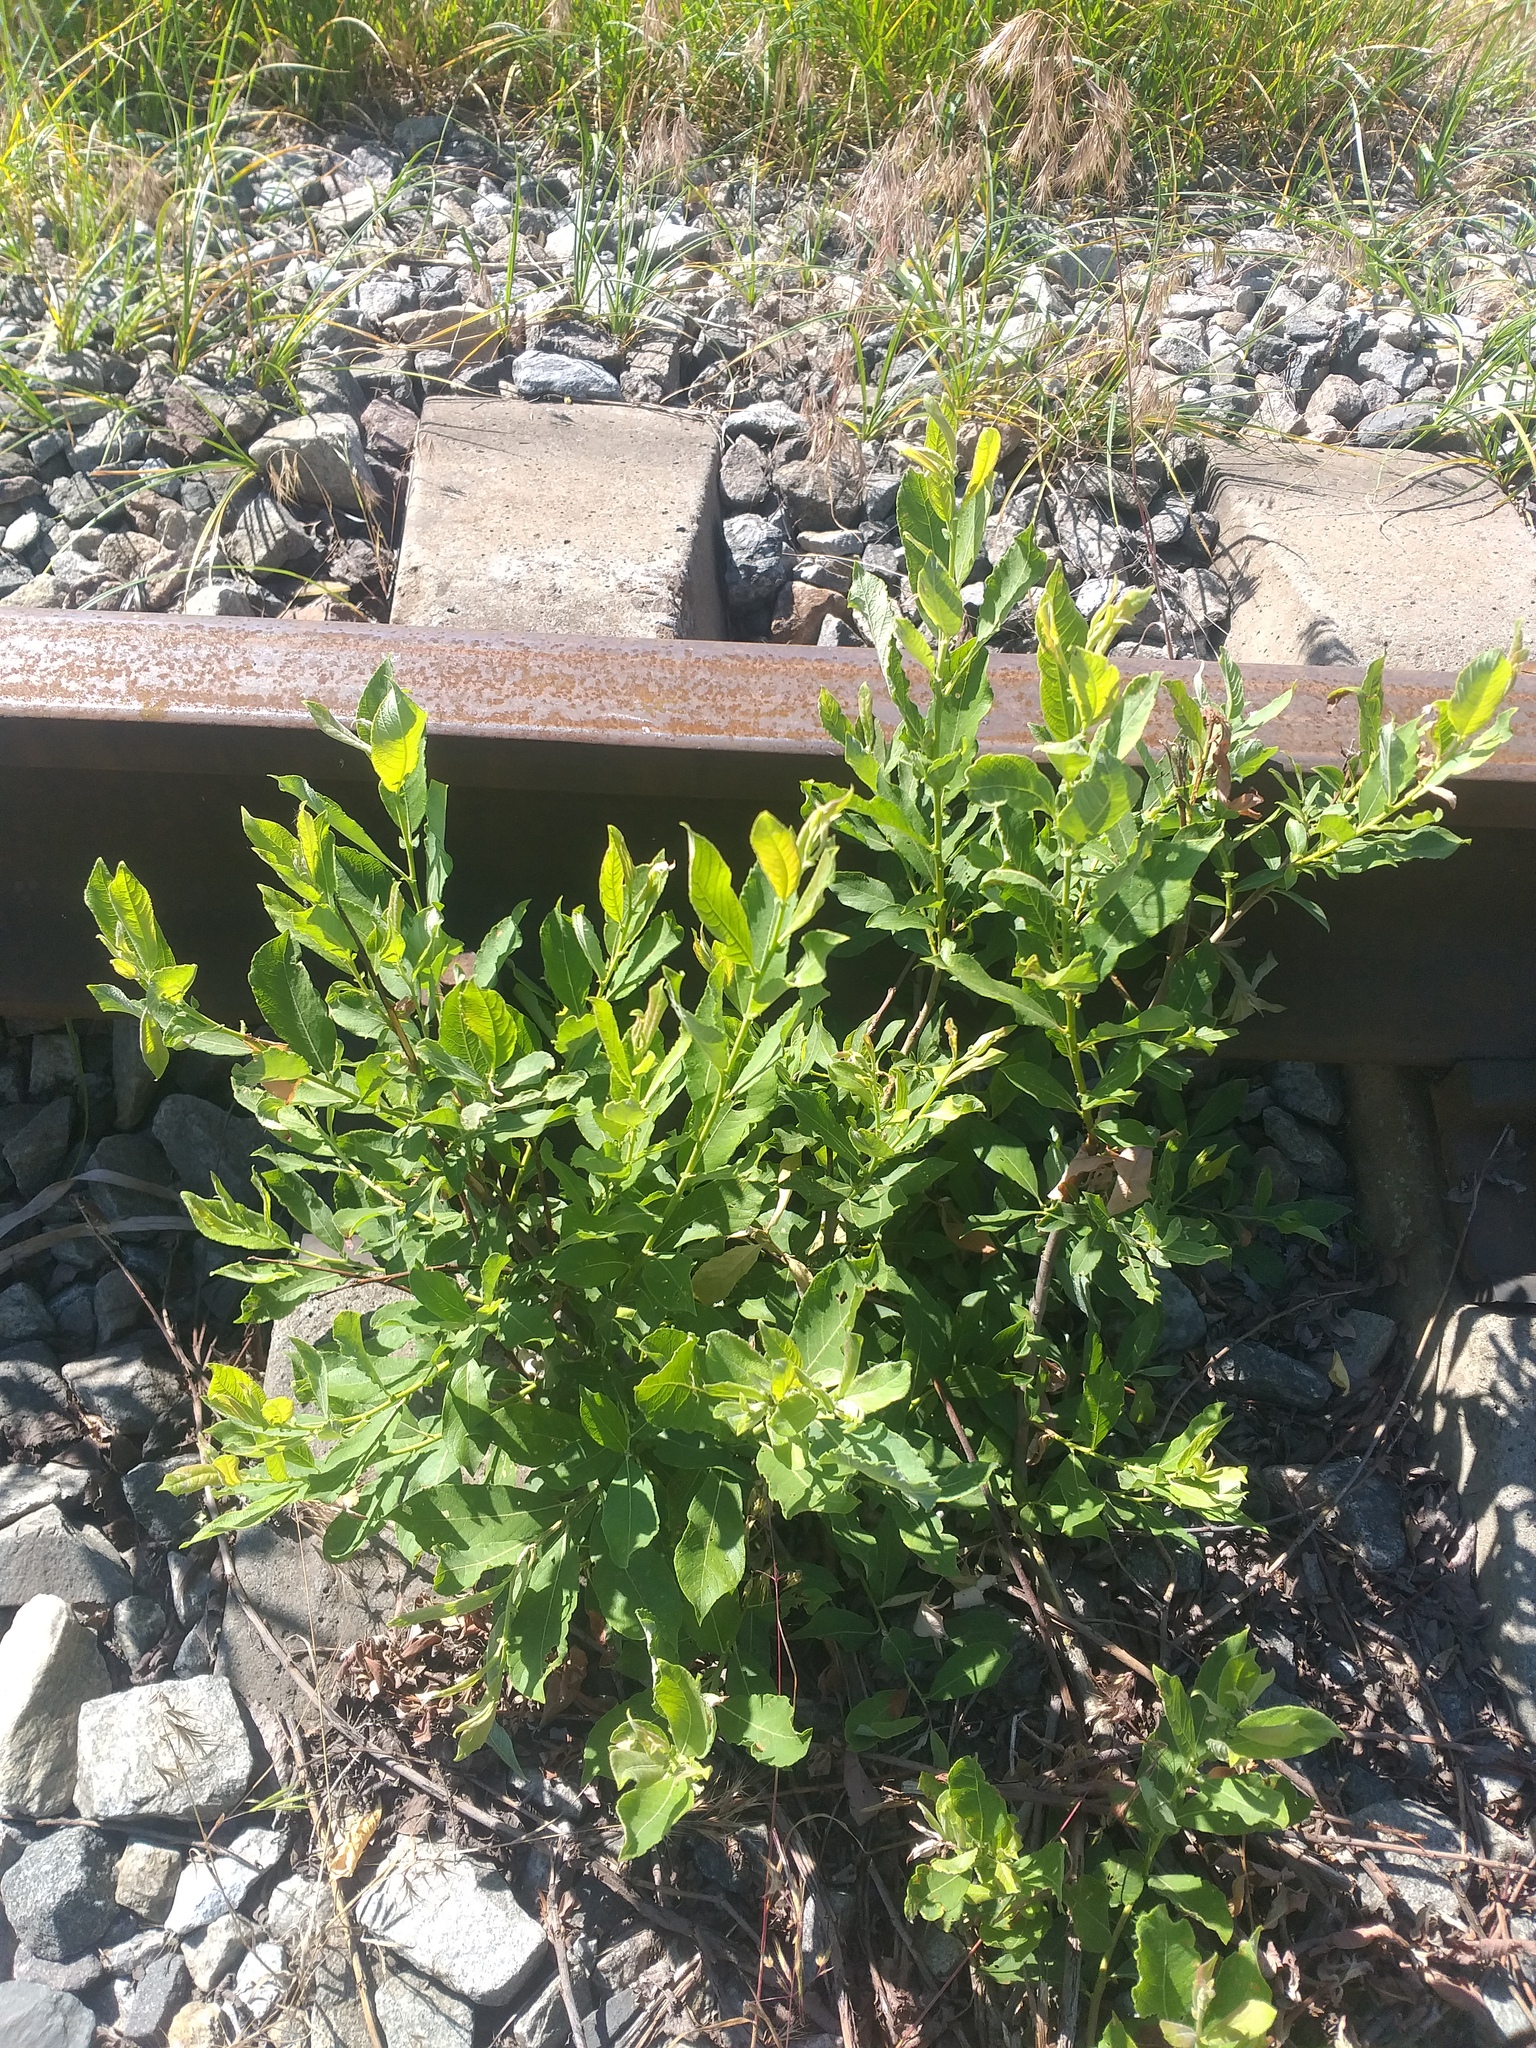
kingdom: Plantae
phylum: Tracheophyta
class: Magnoliopsida
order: Malpighiales
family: Salicaceae
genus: Salix
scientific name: Salix cinerea
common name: Common sallow
